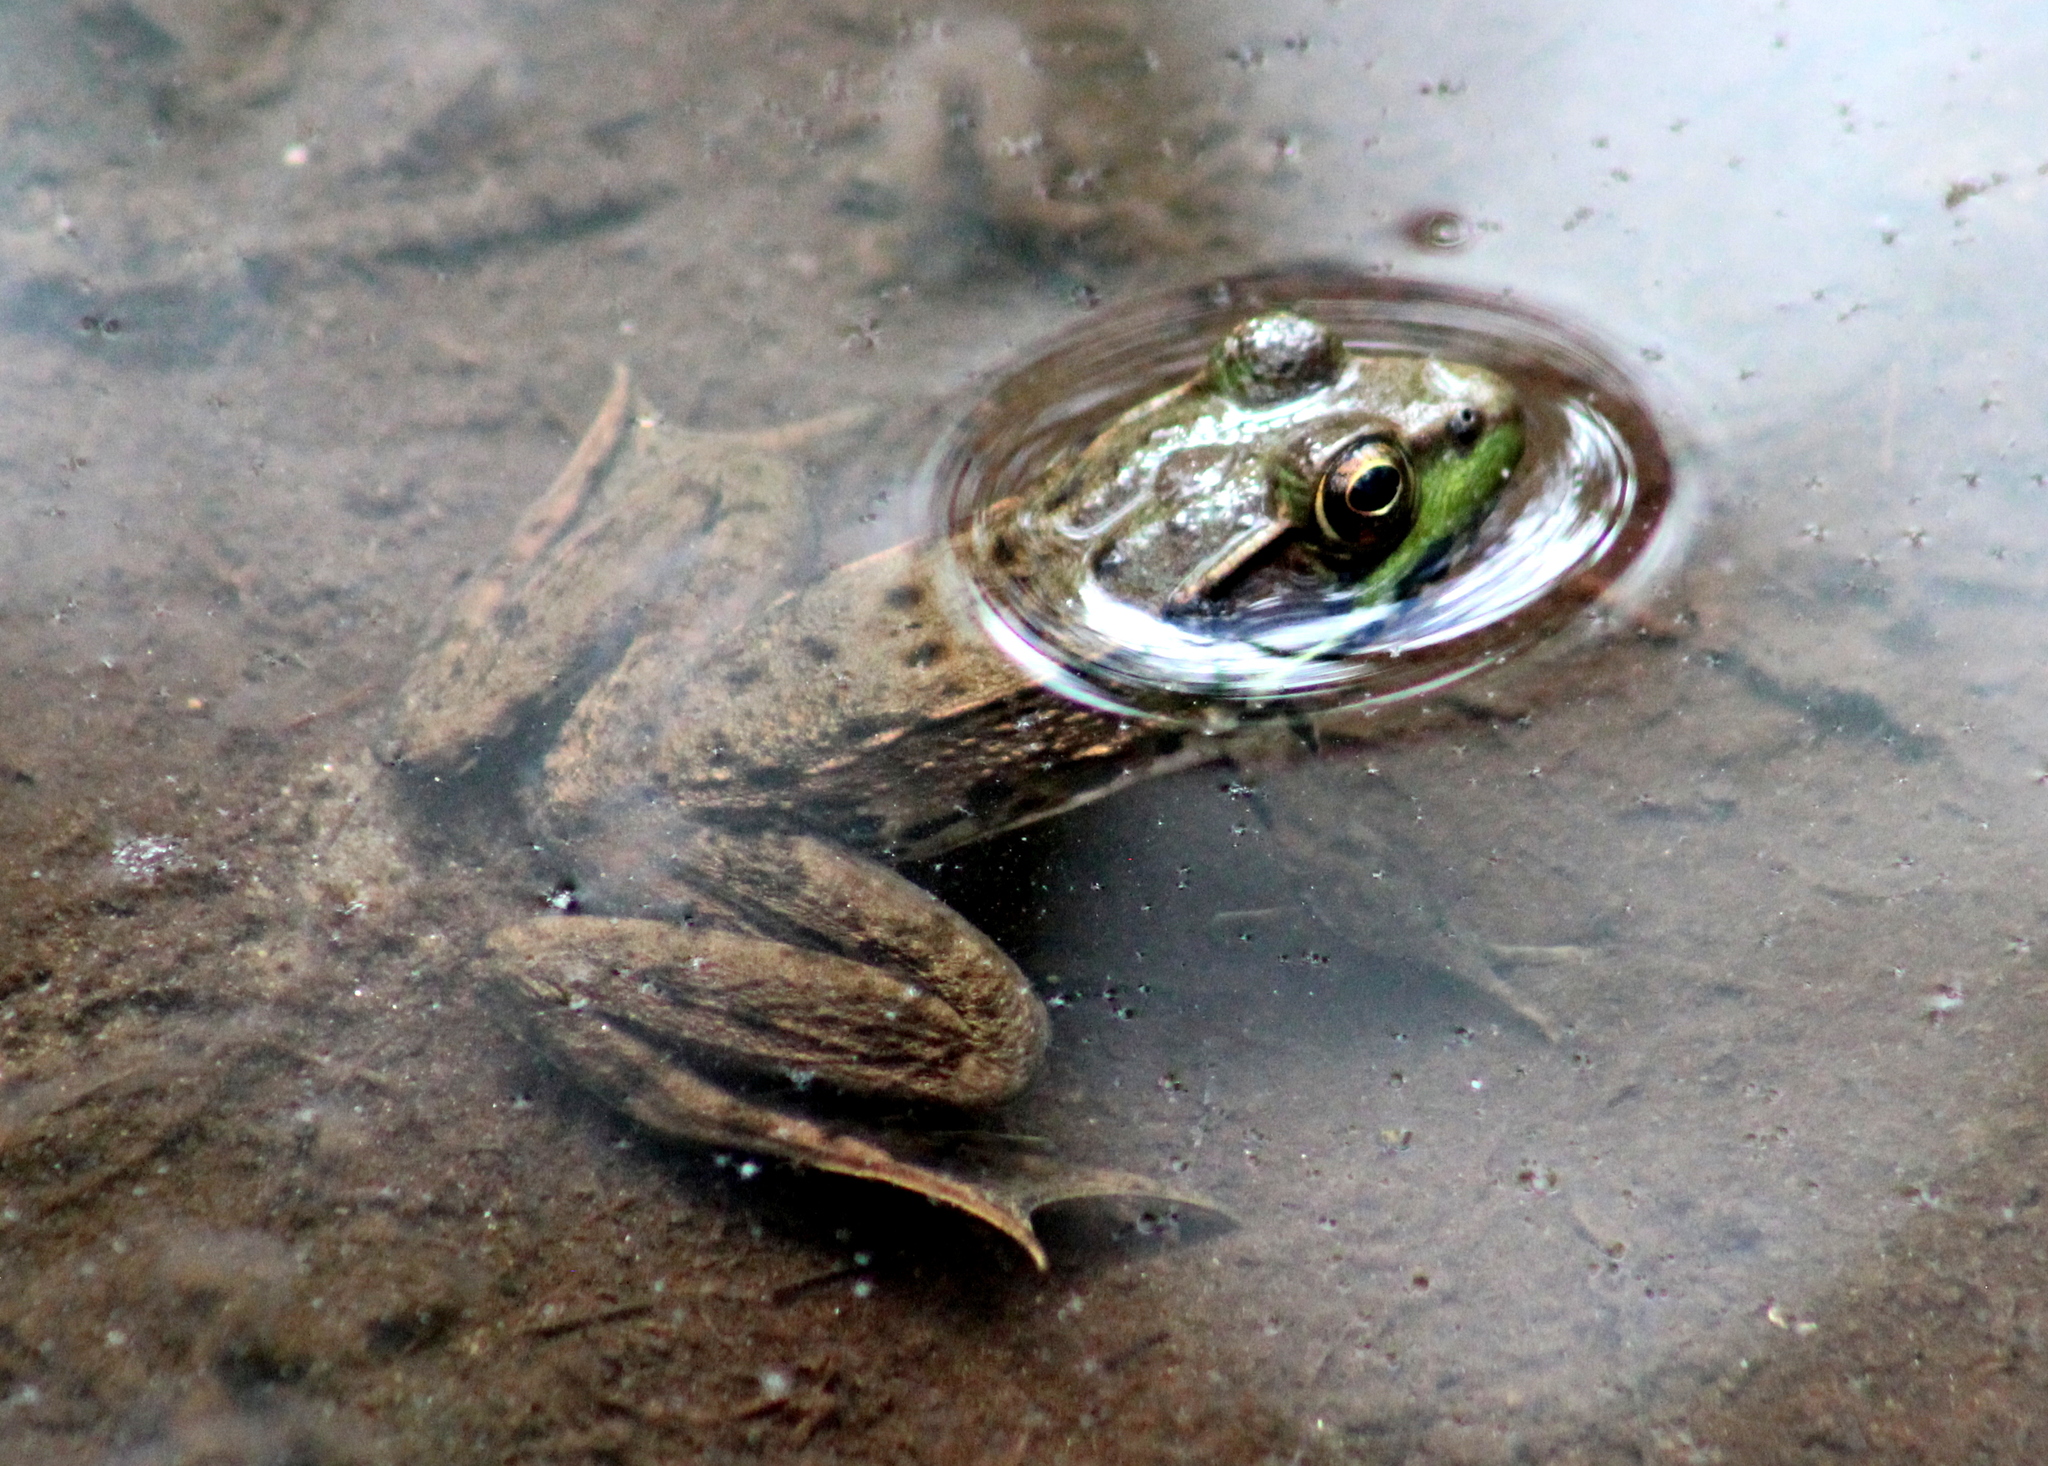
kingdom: Animalia
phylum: Chordata
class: Amphibia
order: Anura
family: Ranidae
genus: Lithobates
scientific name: Lithobates clamitans
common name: Green frog
